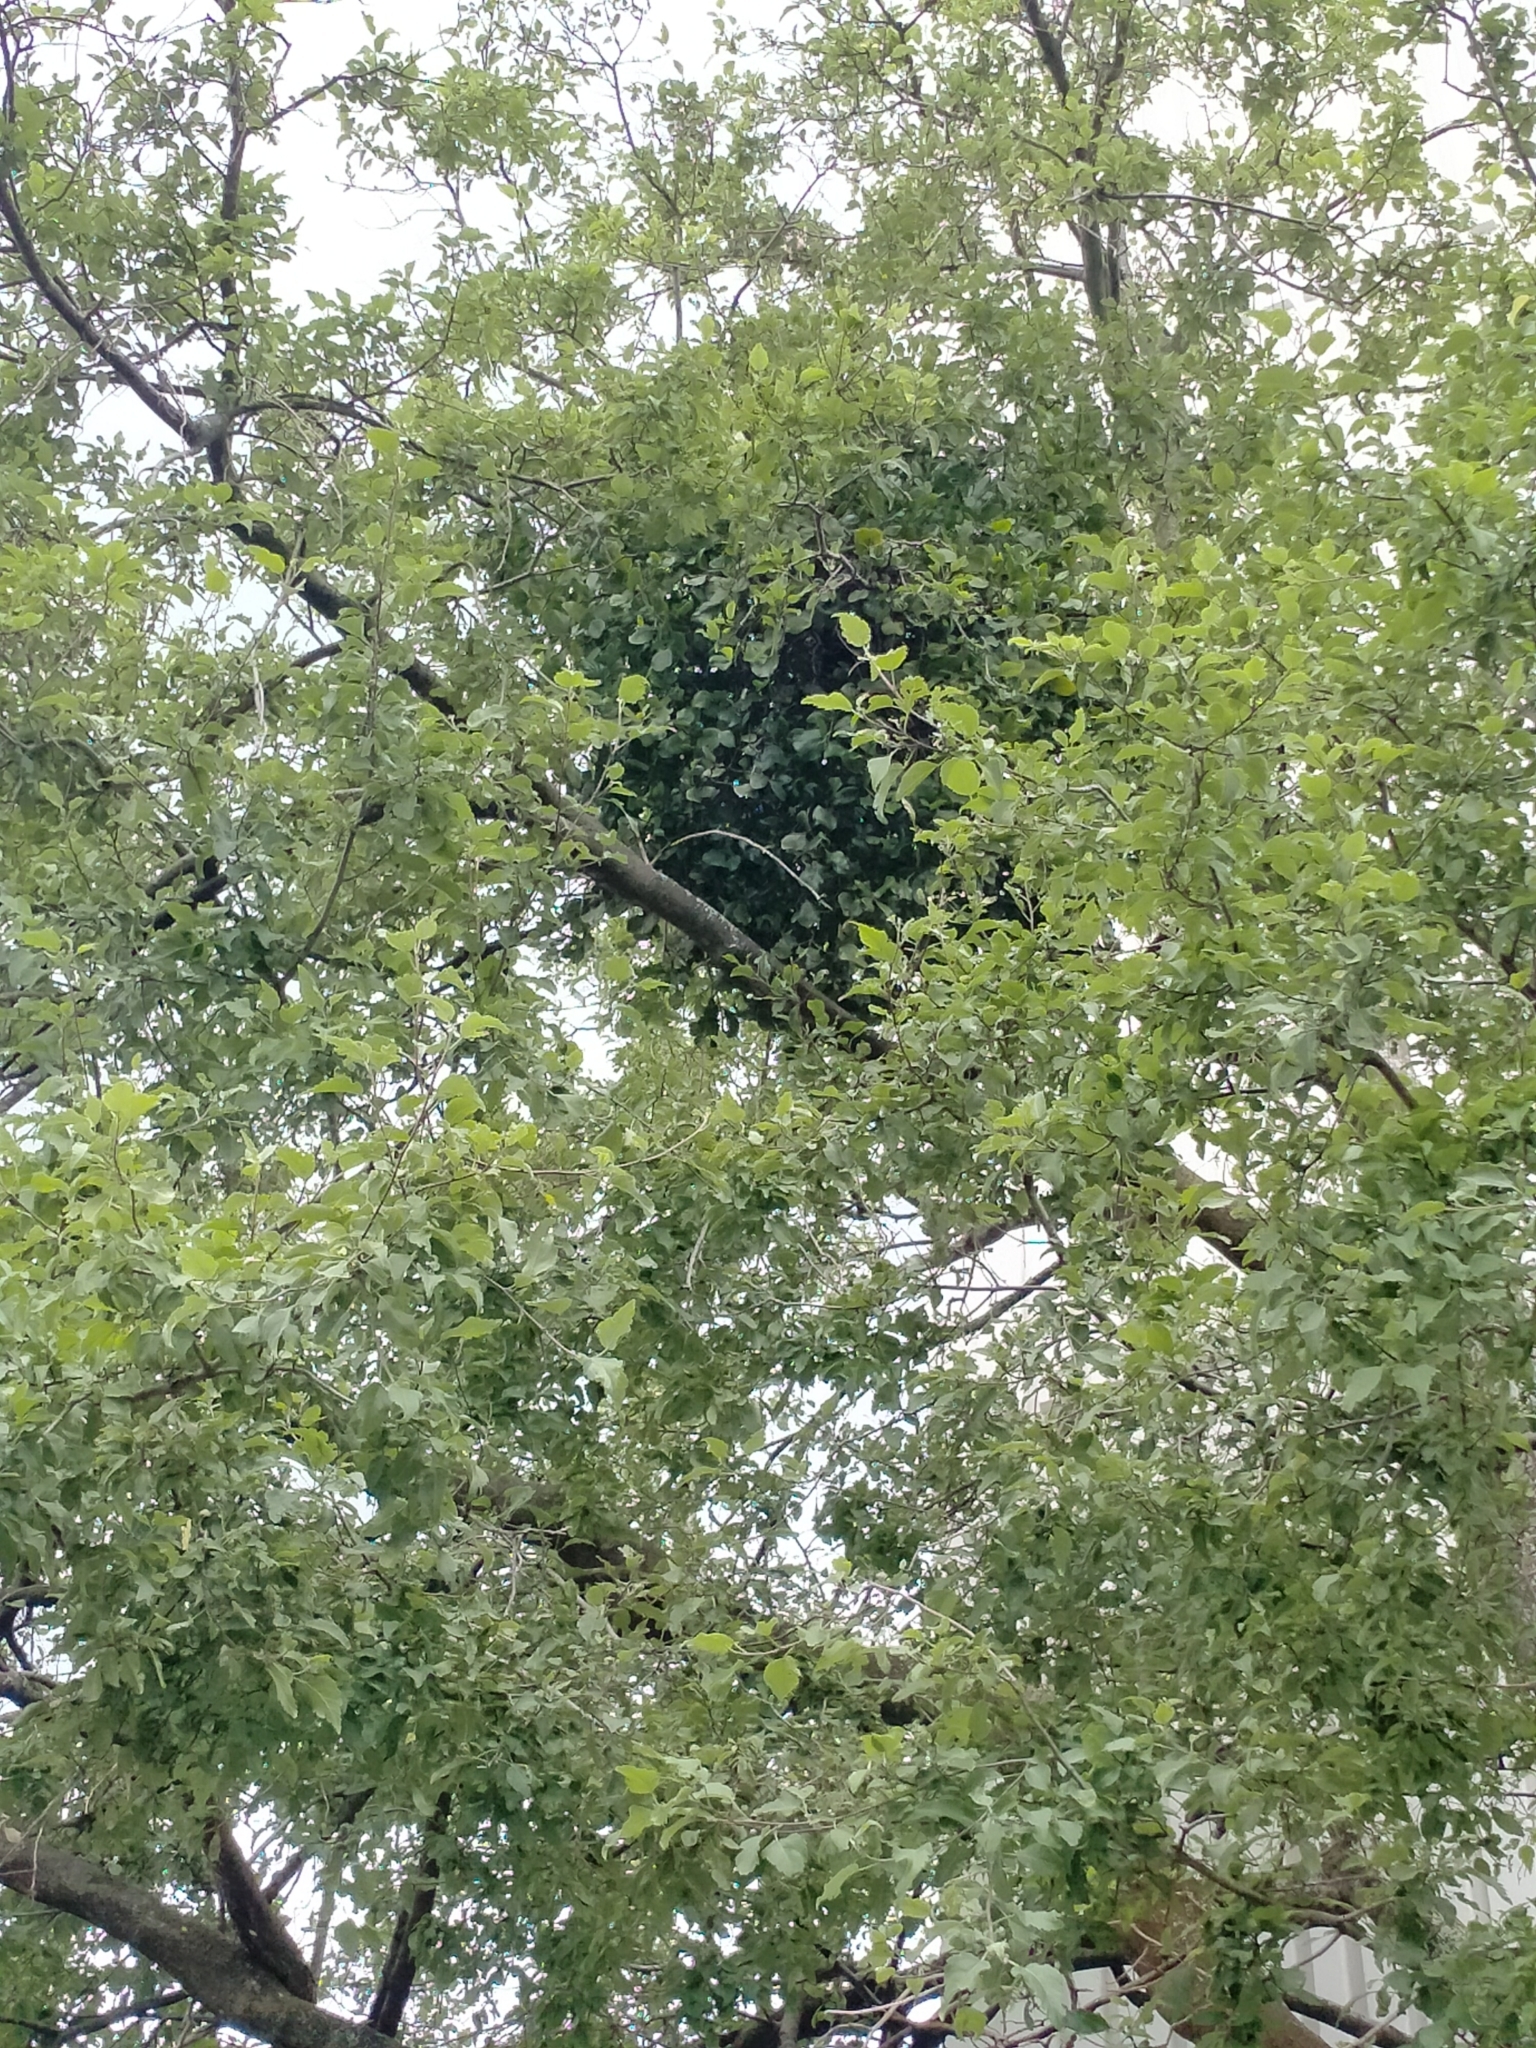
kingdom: Plantae
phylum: Tracheophyta
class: Magnoliopsida
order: Santalales
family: Loranthaceae
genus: Ileostylus
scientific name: Ileostylus micranthus
